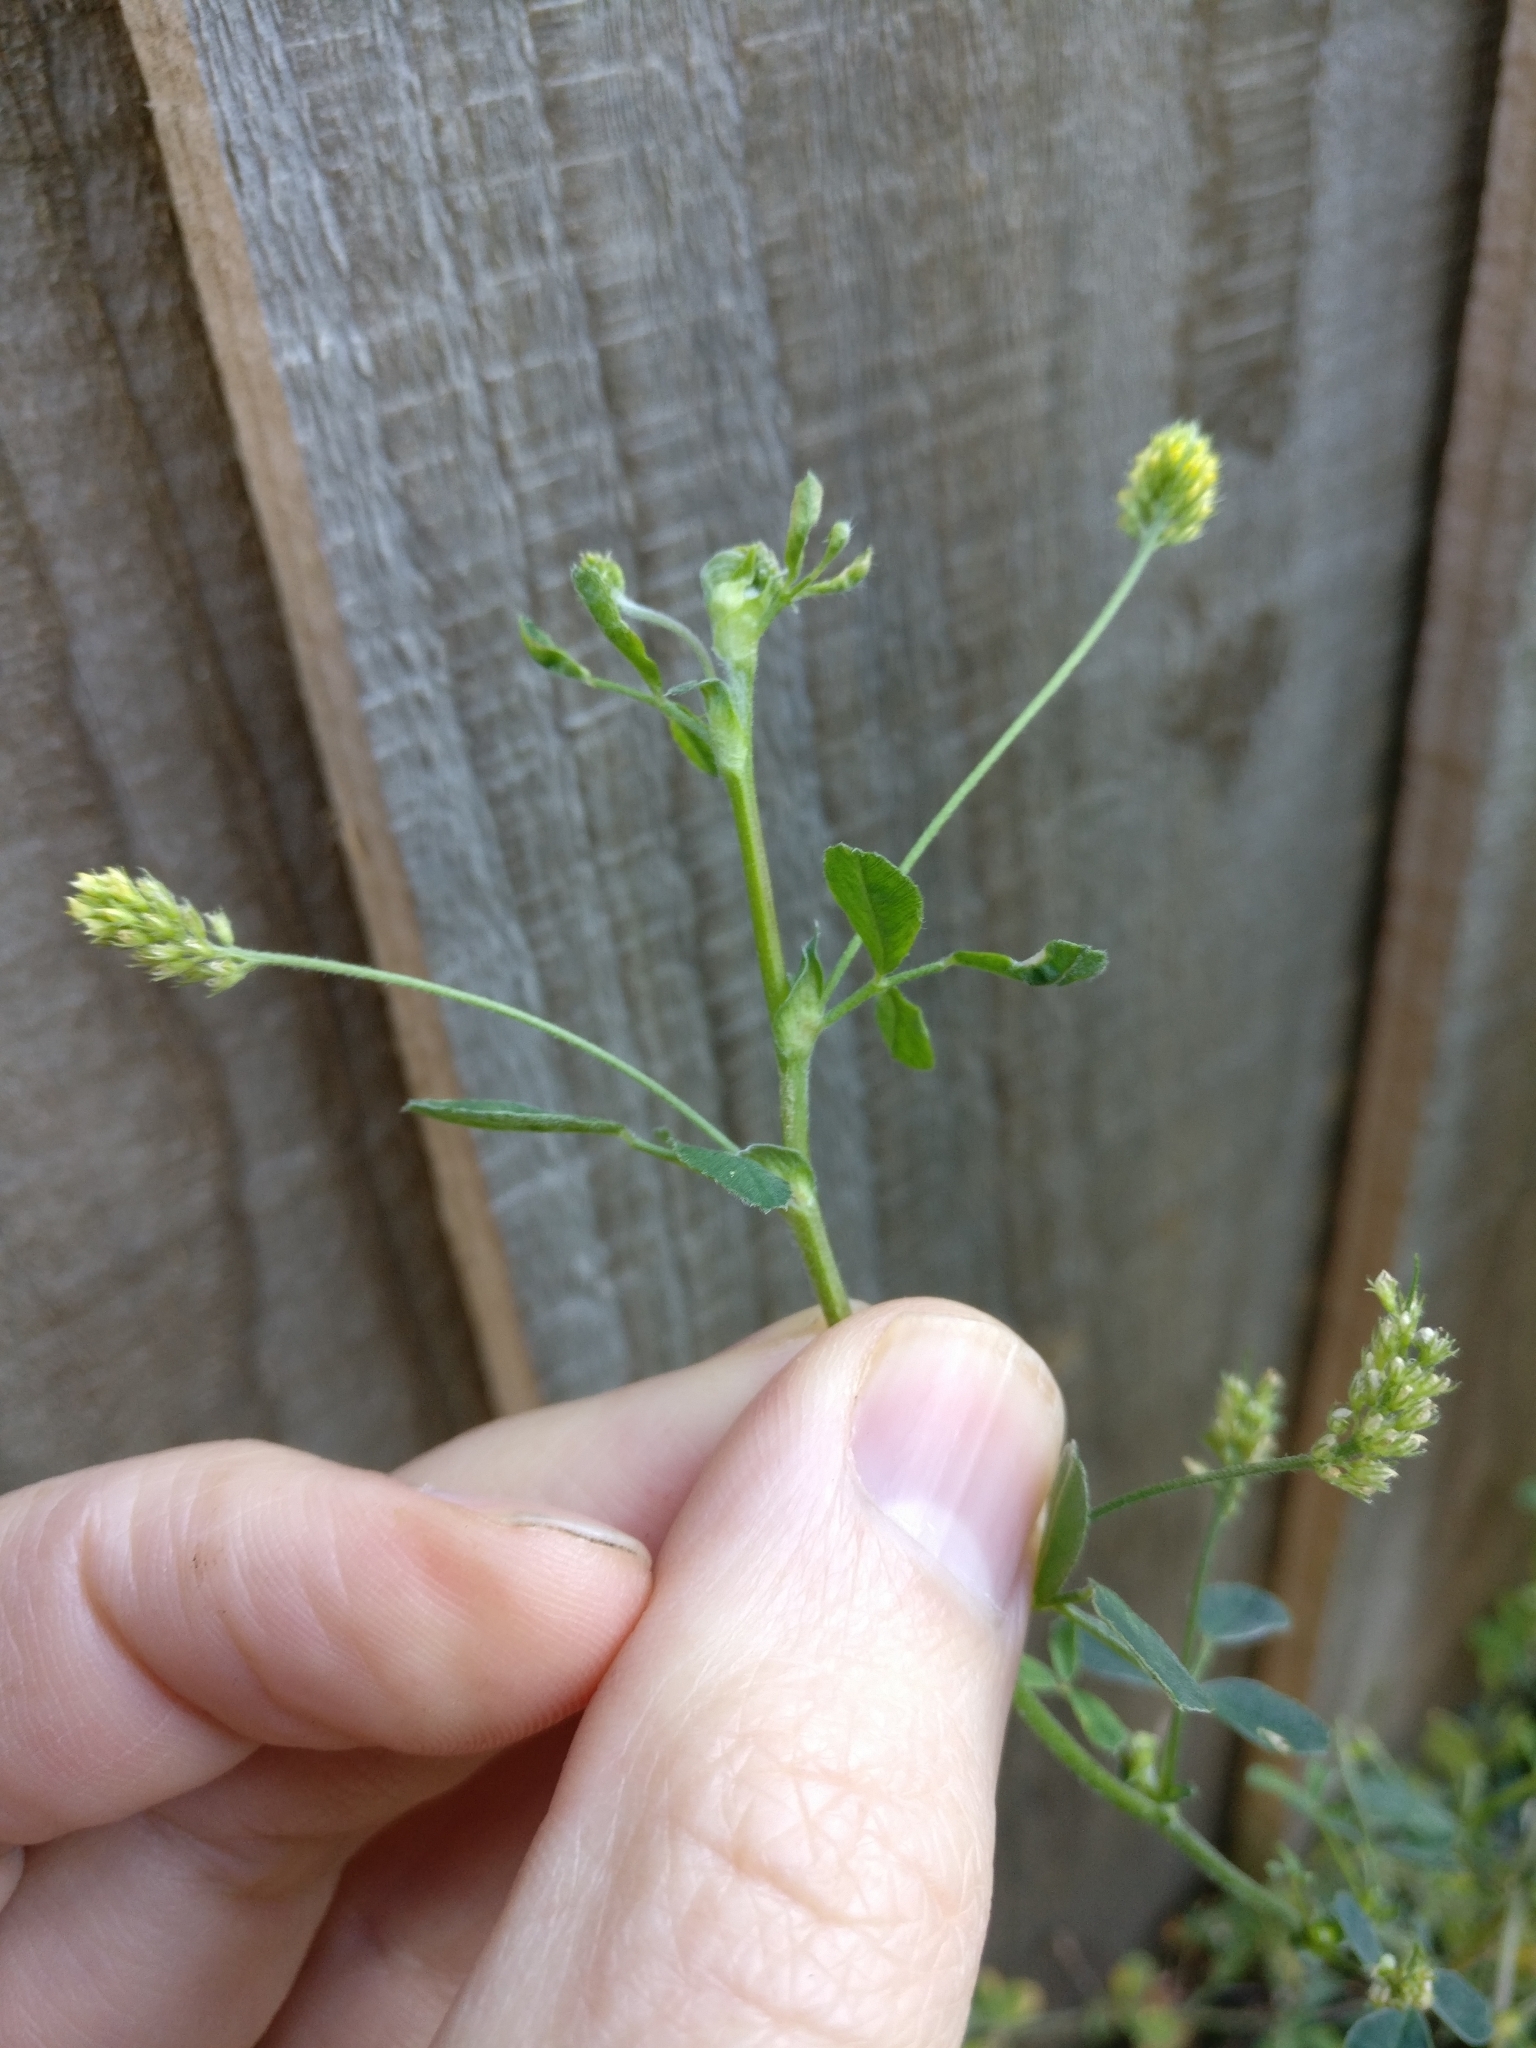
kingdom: Plantae
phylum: Tracheophyta
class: Magnoliopsida
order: Fabales
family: Fabaceae
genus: Medicago
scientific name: Medicago lupulina
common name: Black medick
